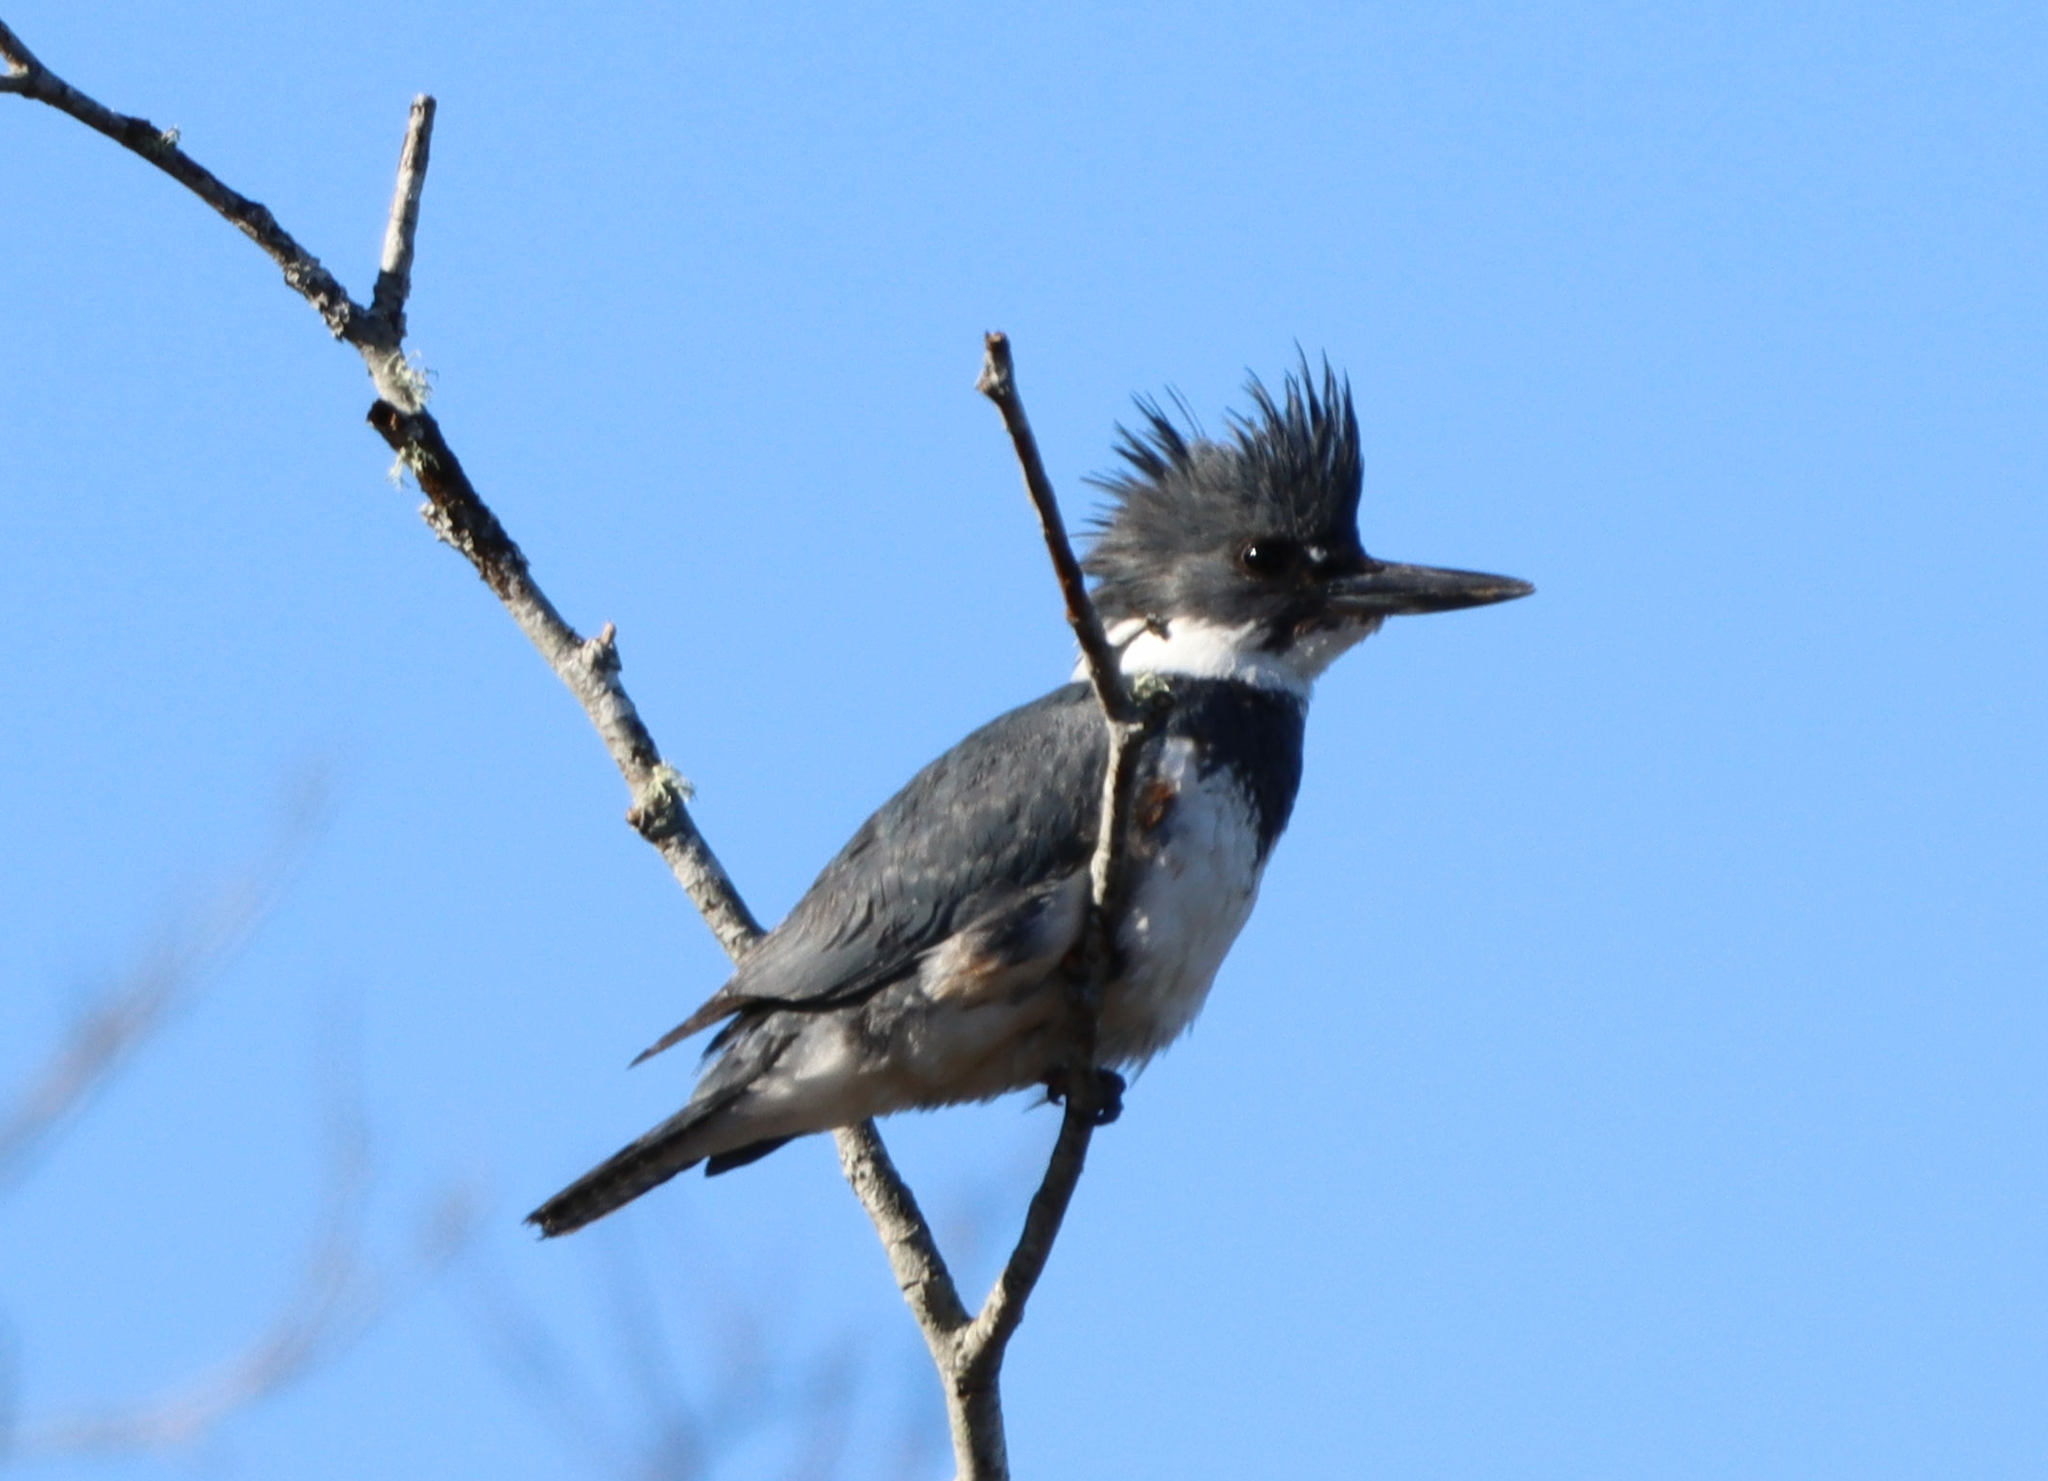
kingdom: Animalia
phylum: Chordata
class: Aves
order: Coraciiformes
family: Alcedinidae
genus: Megaceryle
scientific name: Megaceryle alcyon
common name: Belted kingfisher
